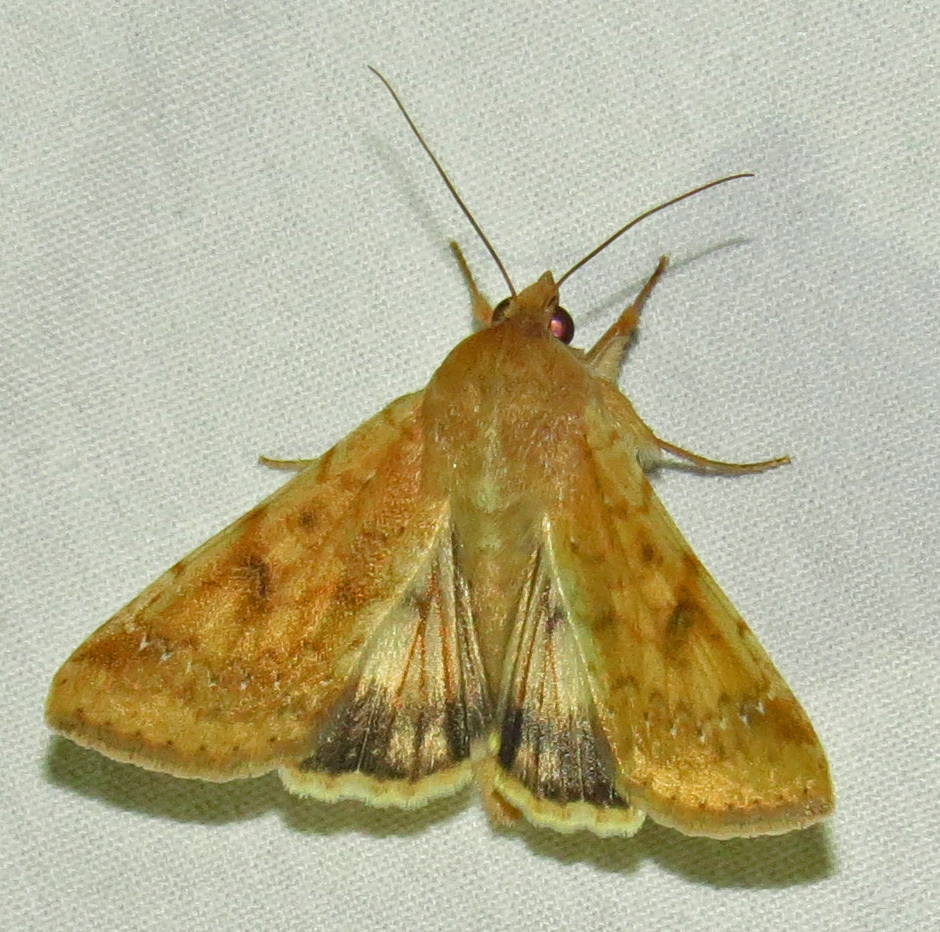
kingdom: Animalia
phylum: Arthropoda
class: Insecta
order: Lepidoptera
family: Noctuidae
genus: Helicoverpa
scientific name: Helicoverpa zea
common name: Bollworm
